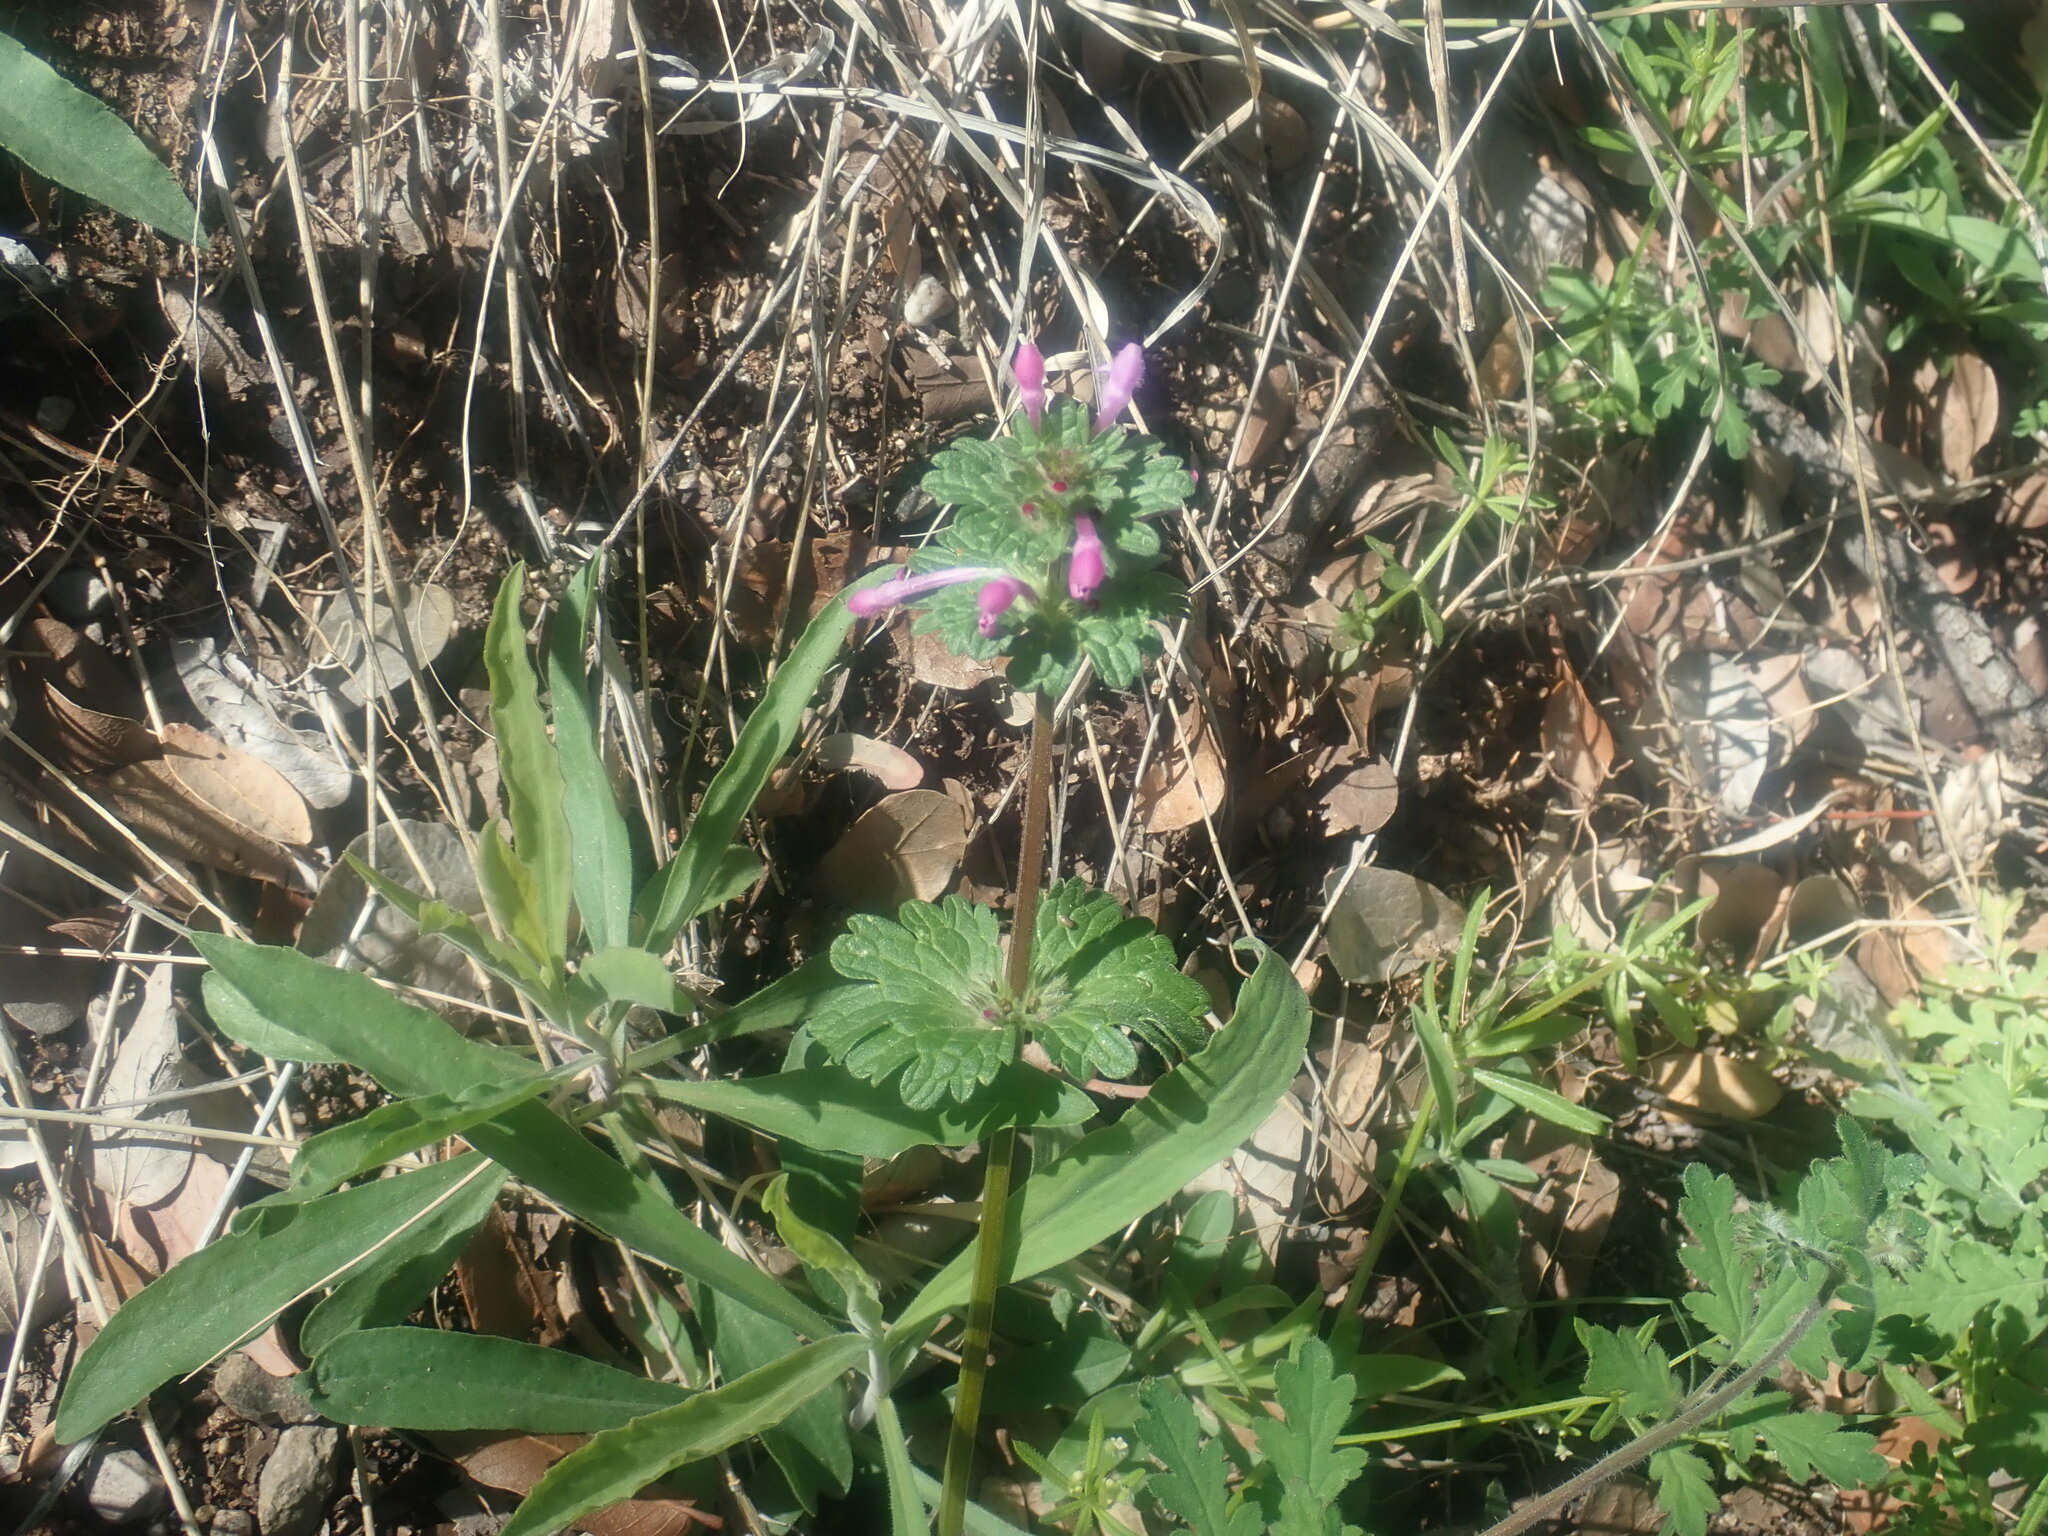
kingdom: Plantae
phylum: Tracheophyta
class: Magnoliopsida
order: Lamiales
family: Lamiaceae
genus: Lamium
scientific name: Lamium amplexicaule
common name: Henbit dead-nettle
